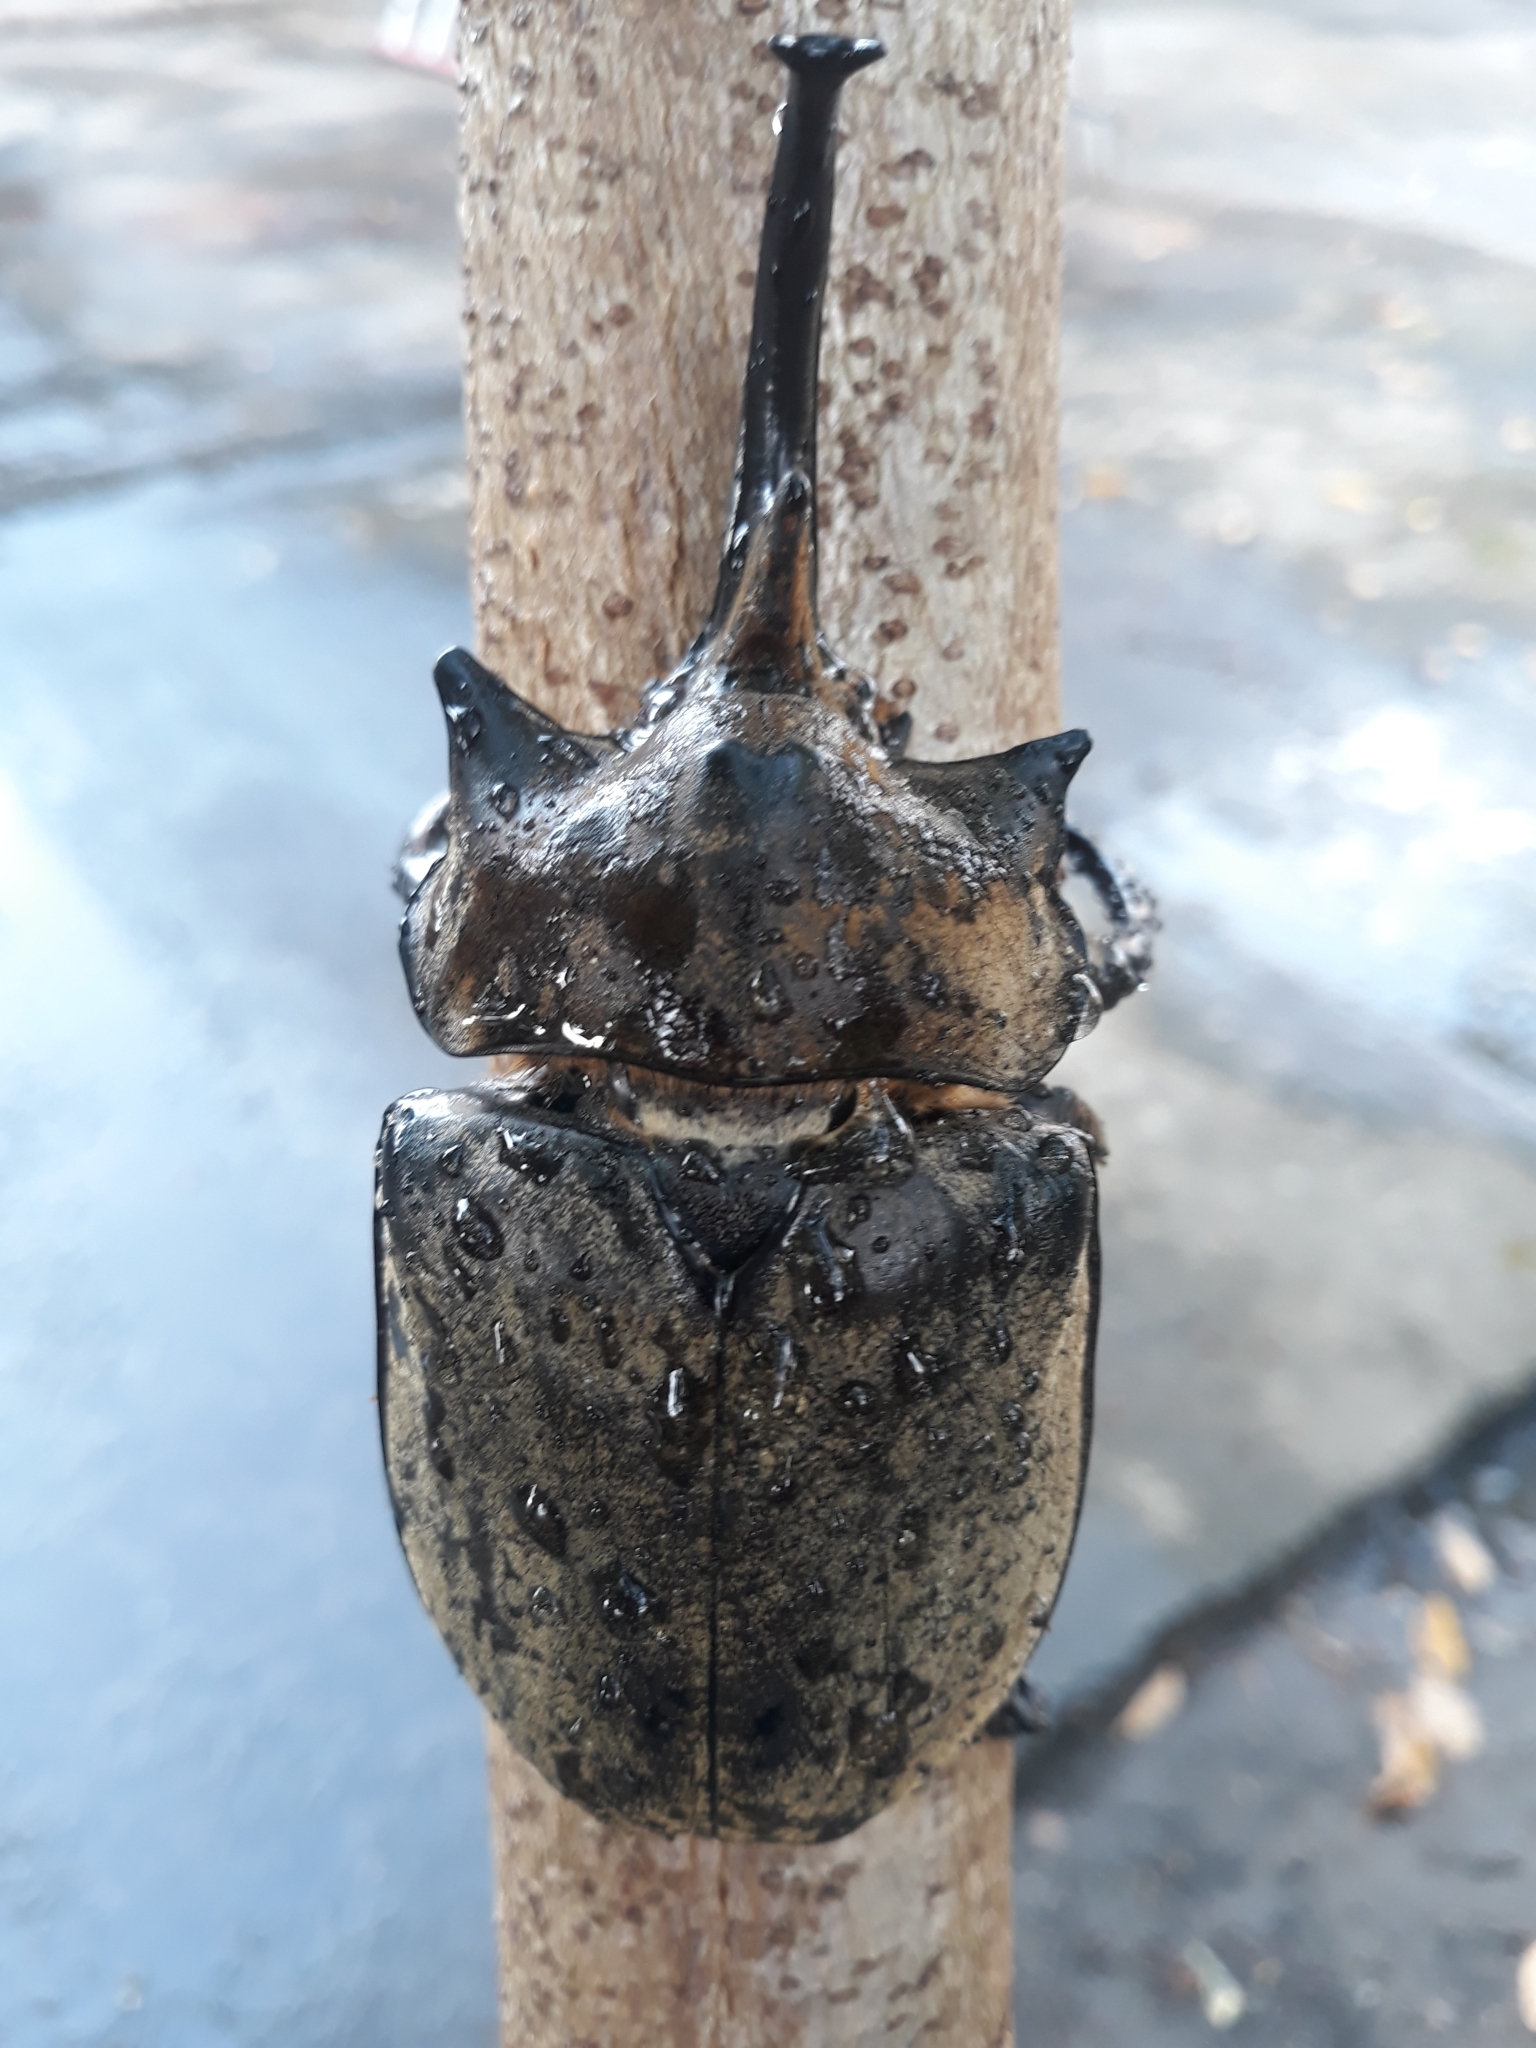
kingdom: Animalia
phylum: Arthropoda
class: Insecta
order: Coleoptera
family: Scarabaeidae
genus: Megasoma
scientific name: Megasoma elephas
